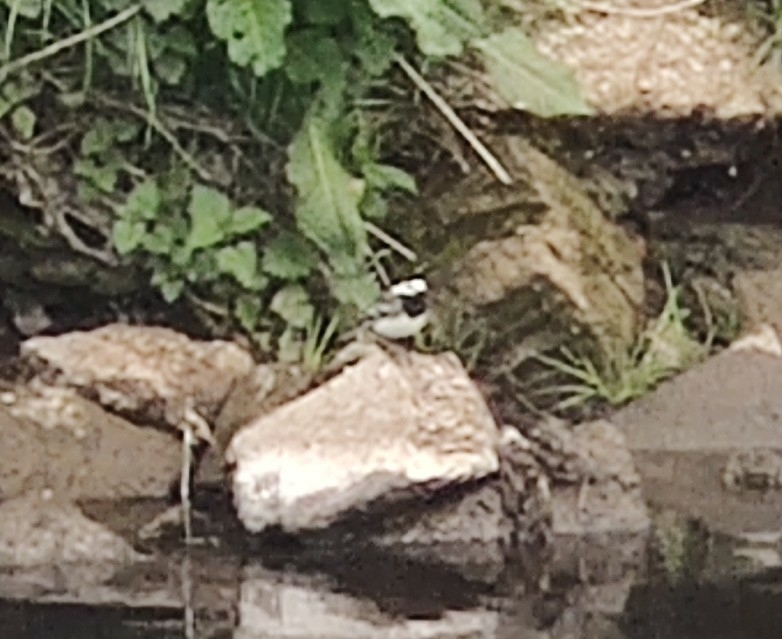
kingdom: Animalia
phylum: Chordata
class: Aves
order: Passeriformes
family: Motacillidae
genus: Motacilla
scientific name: Motacilla alba
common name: White wagtail
